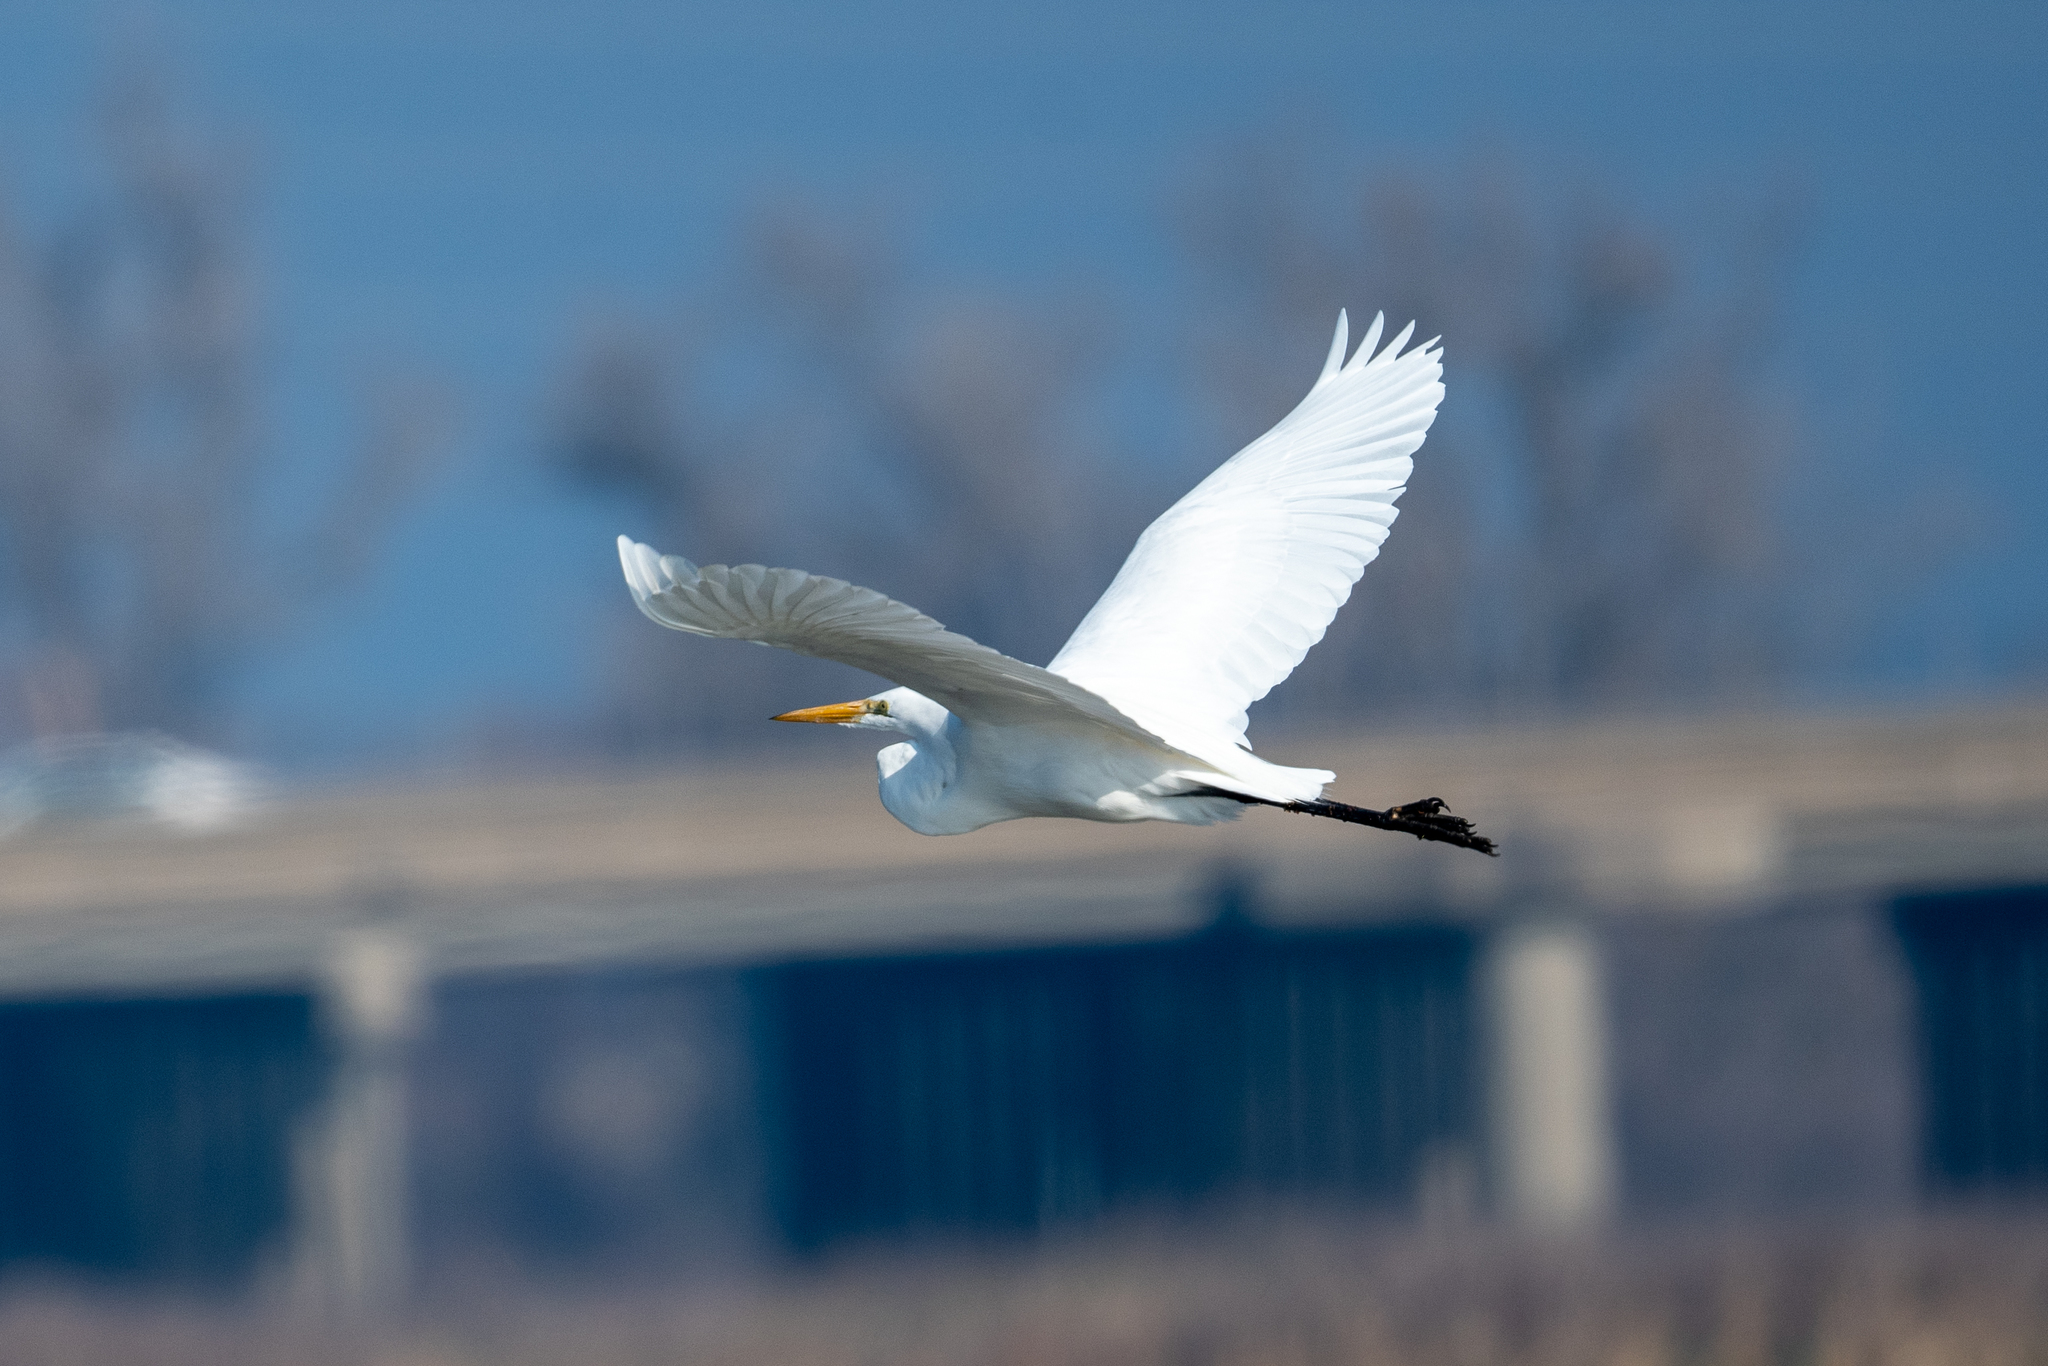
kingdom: Animalia
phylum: Chordata
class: Aves
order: Pelecaniformes
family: Ardeidae
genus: Ardea
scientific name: Ardea alba
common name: Great egret
